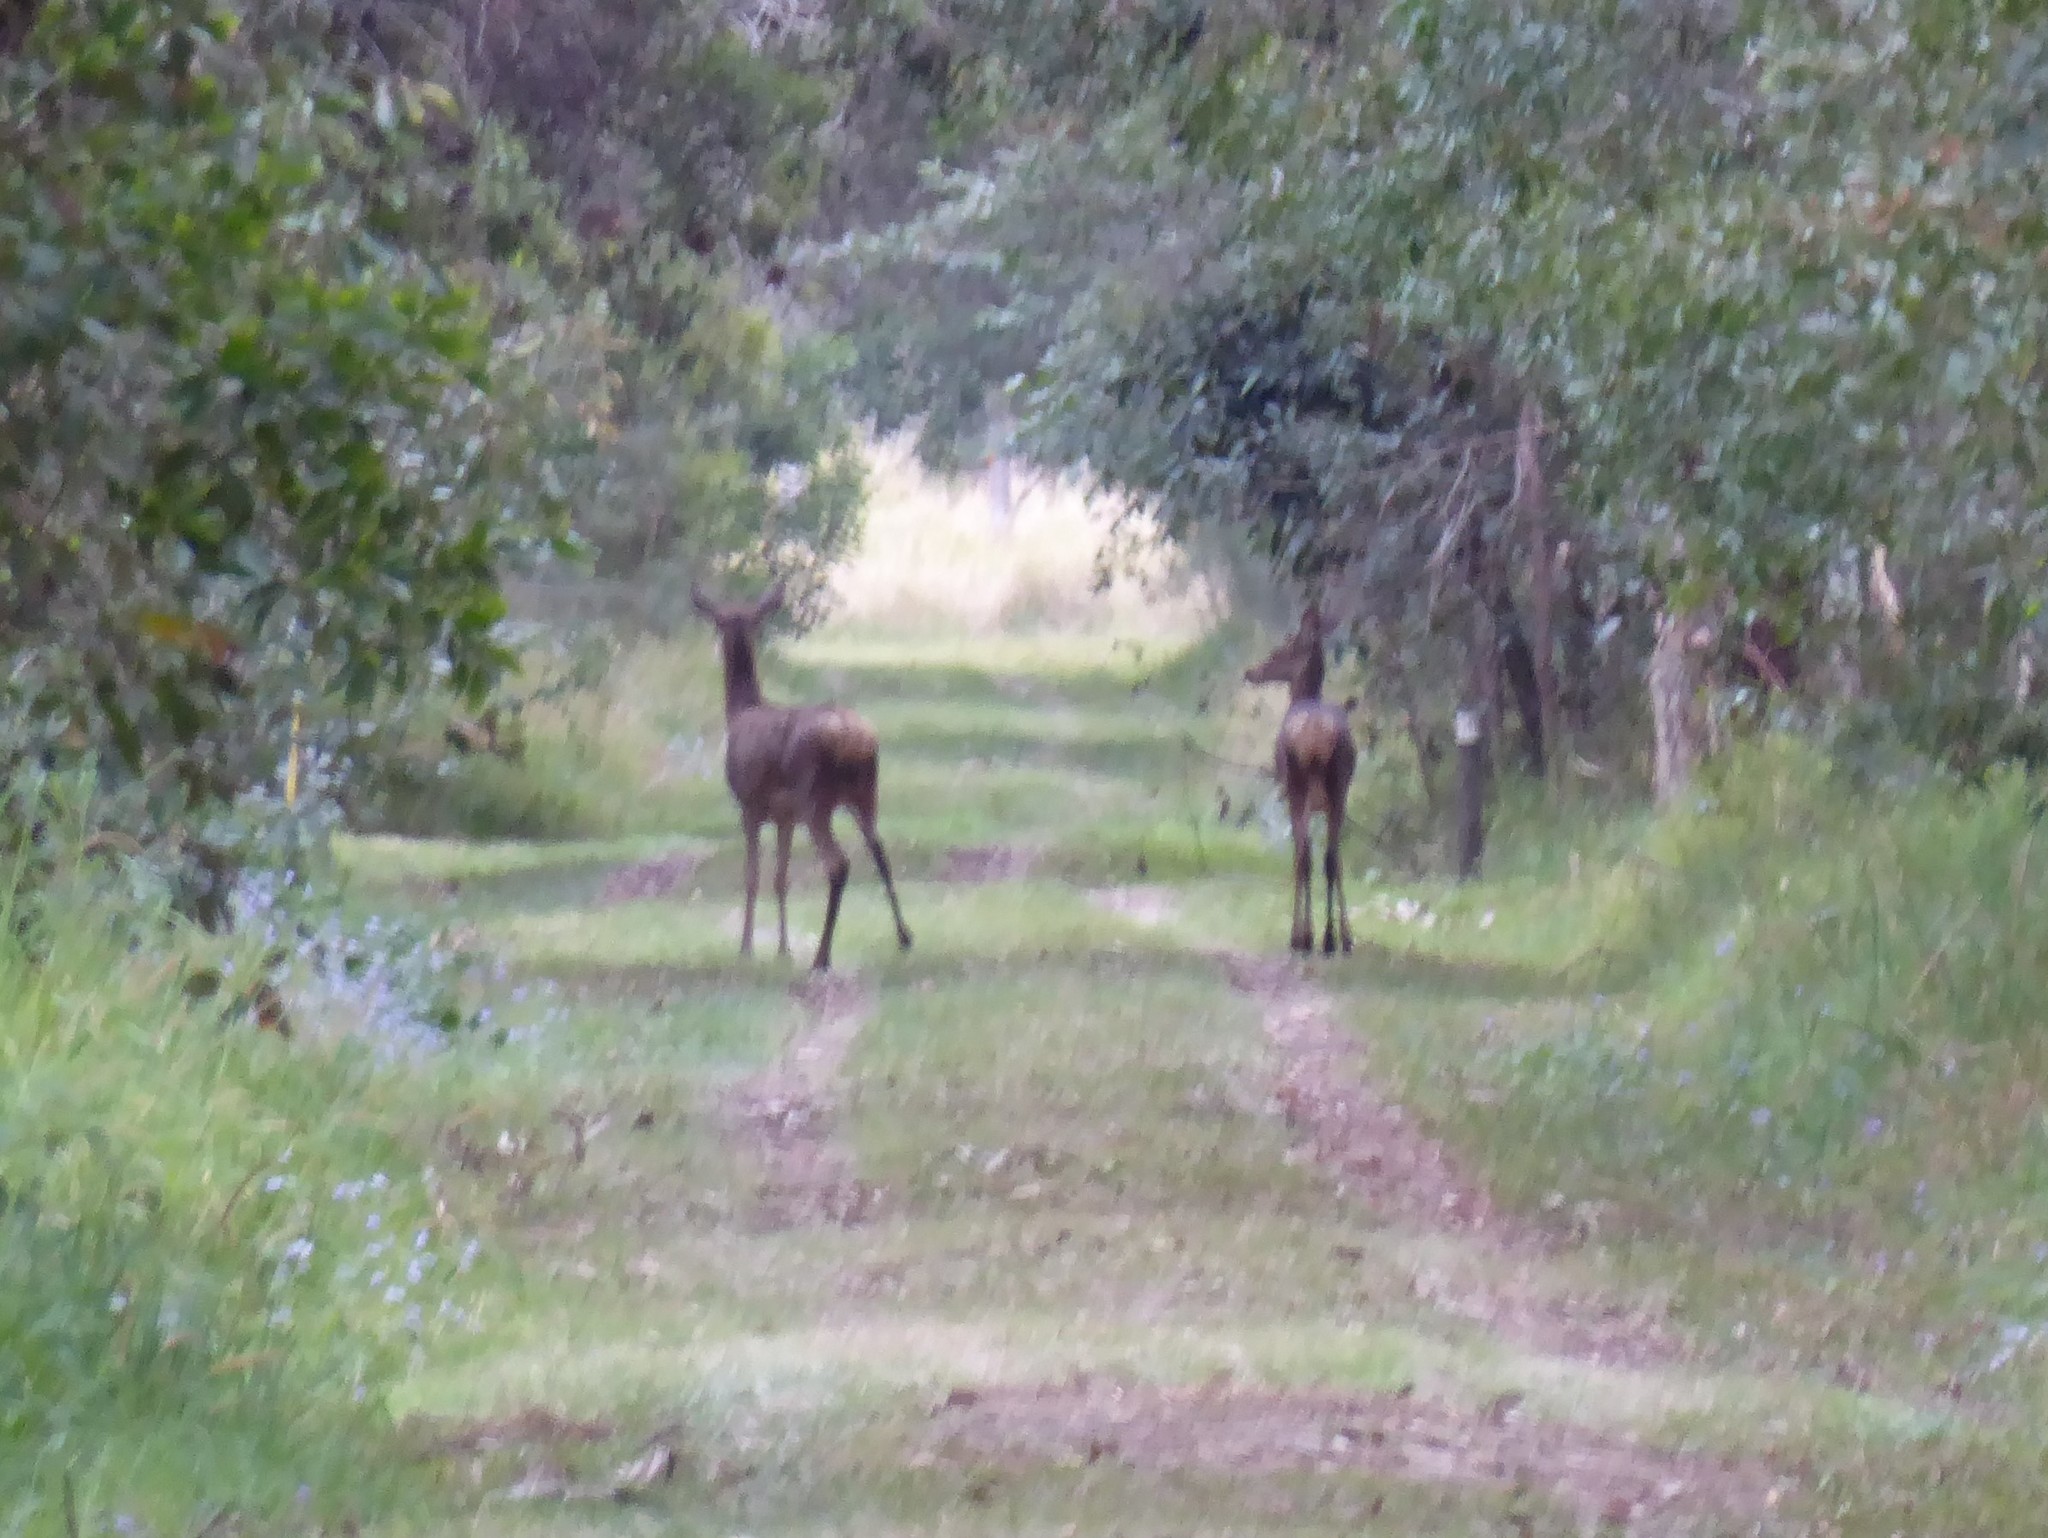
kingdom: Animalia
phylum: Chordata
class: Mammalia
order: Artiodactyla
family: Cervidae
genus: Cervus
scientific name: Cervus elaphus
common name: Red deer
